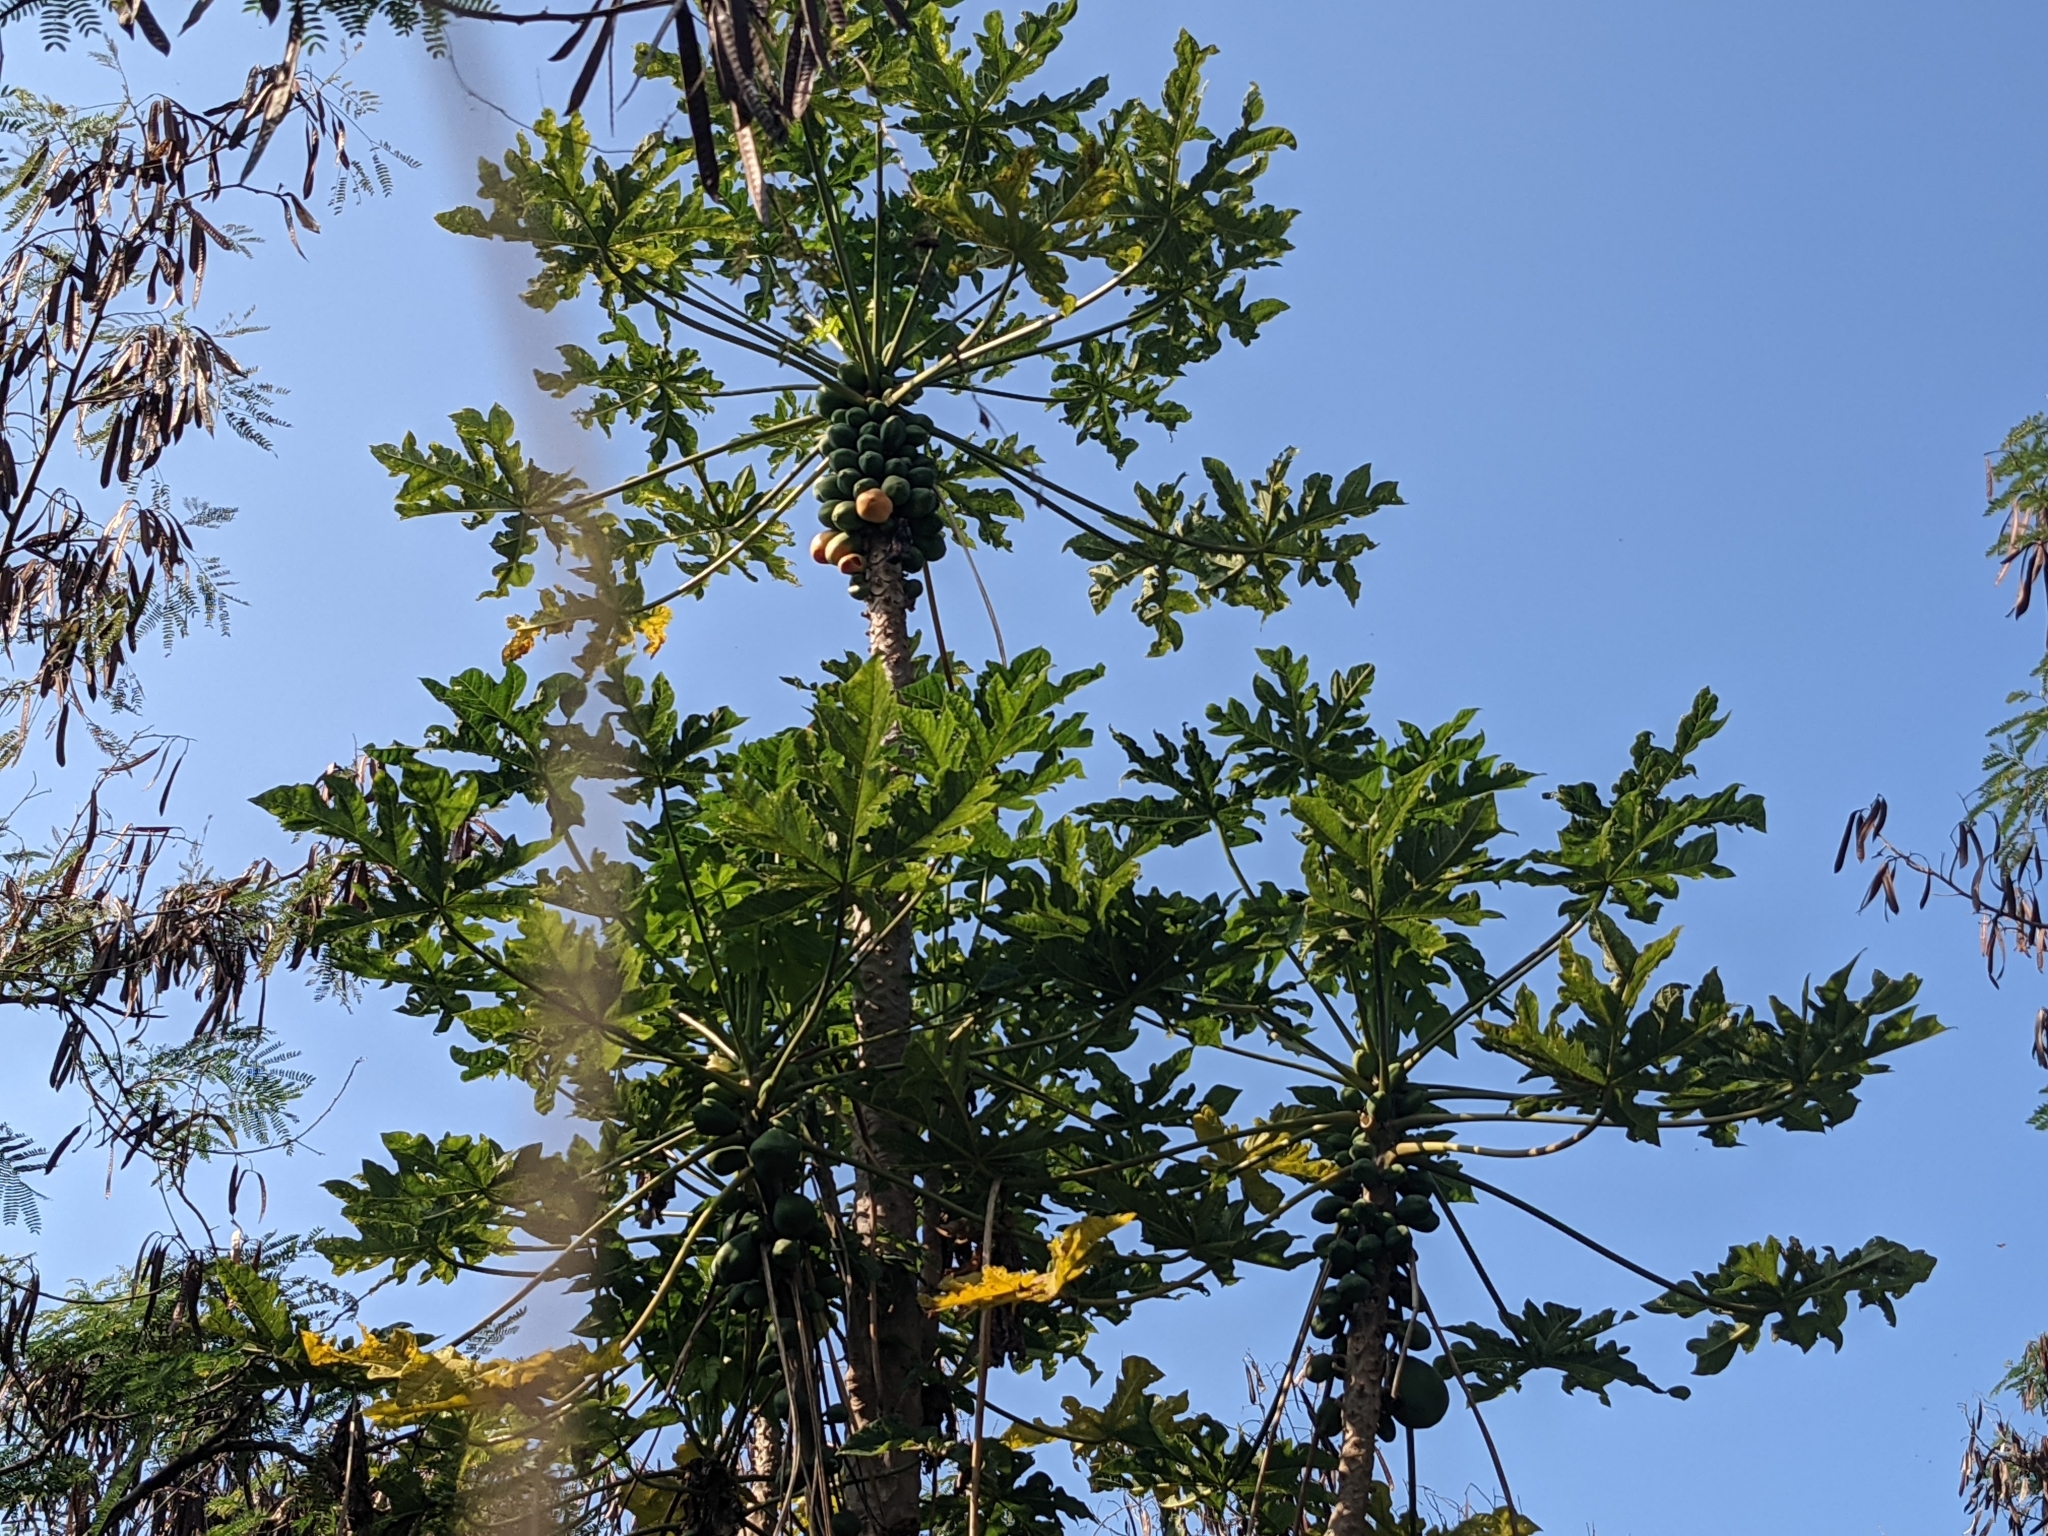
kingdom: Plantae
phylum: Tracheophyta
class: Magnoliopsida
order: Brassicales
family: Caricaceae
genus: Carica
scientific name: Carica papaya
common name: Papaya
